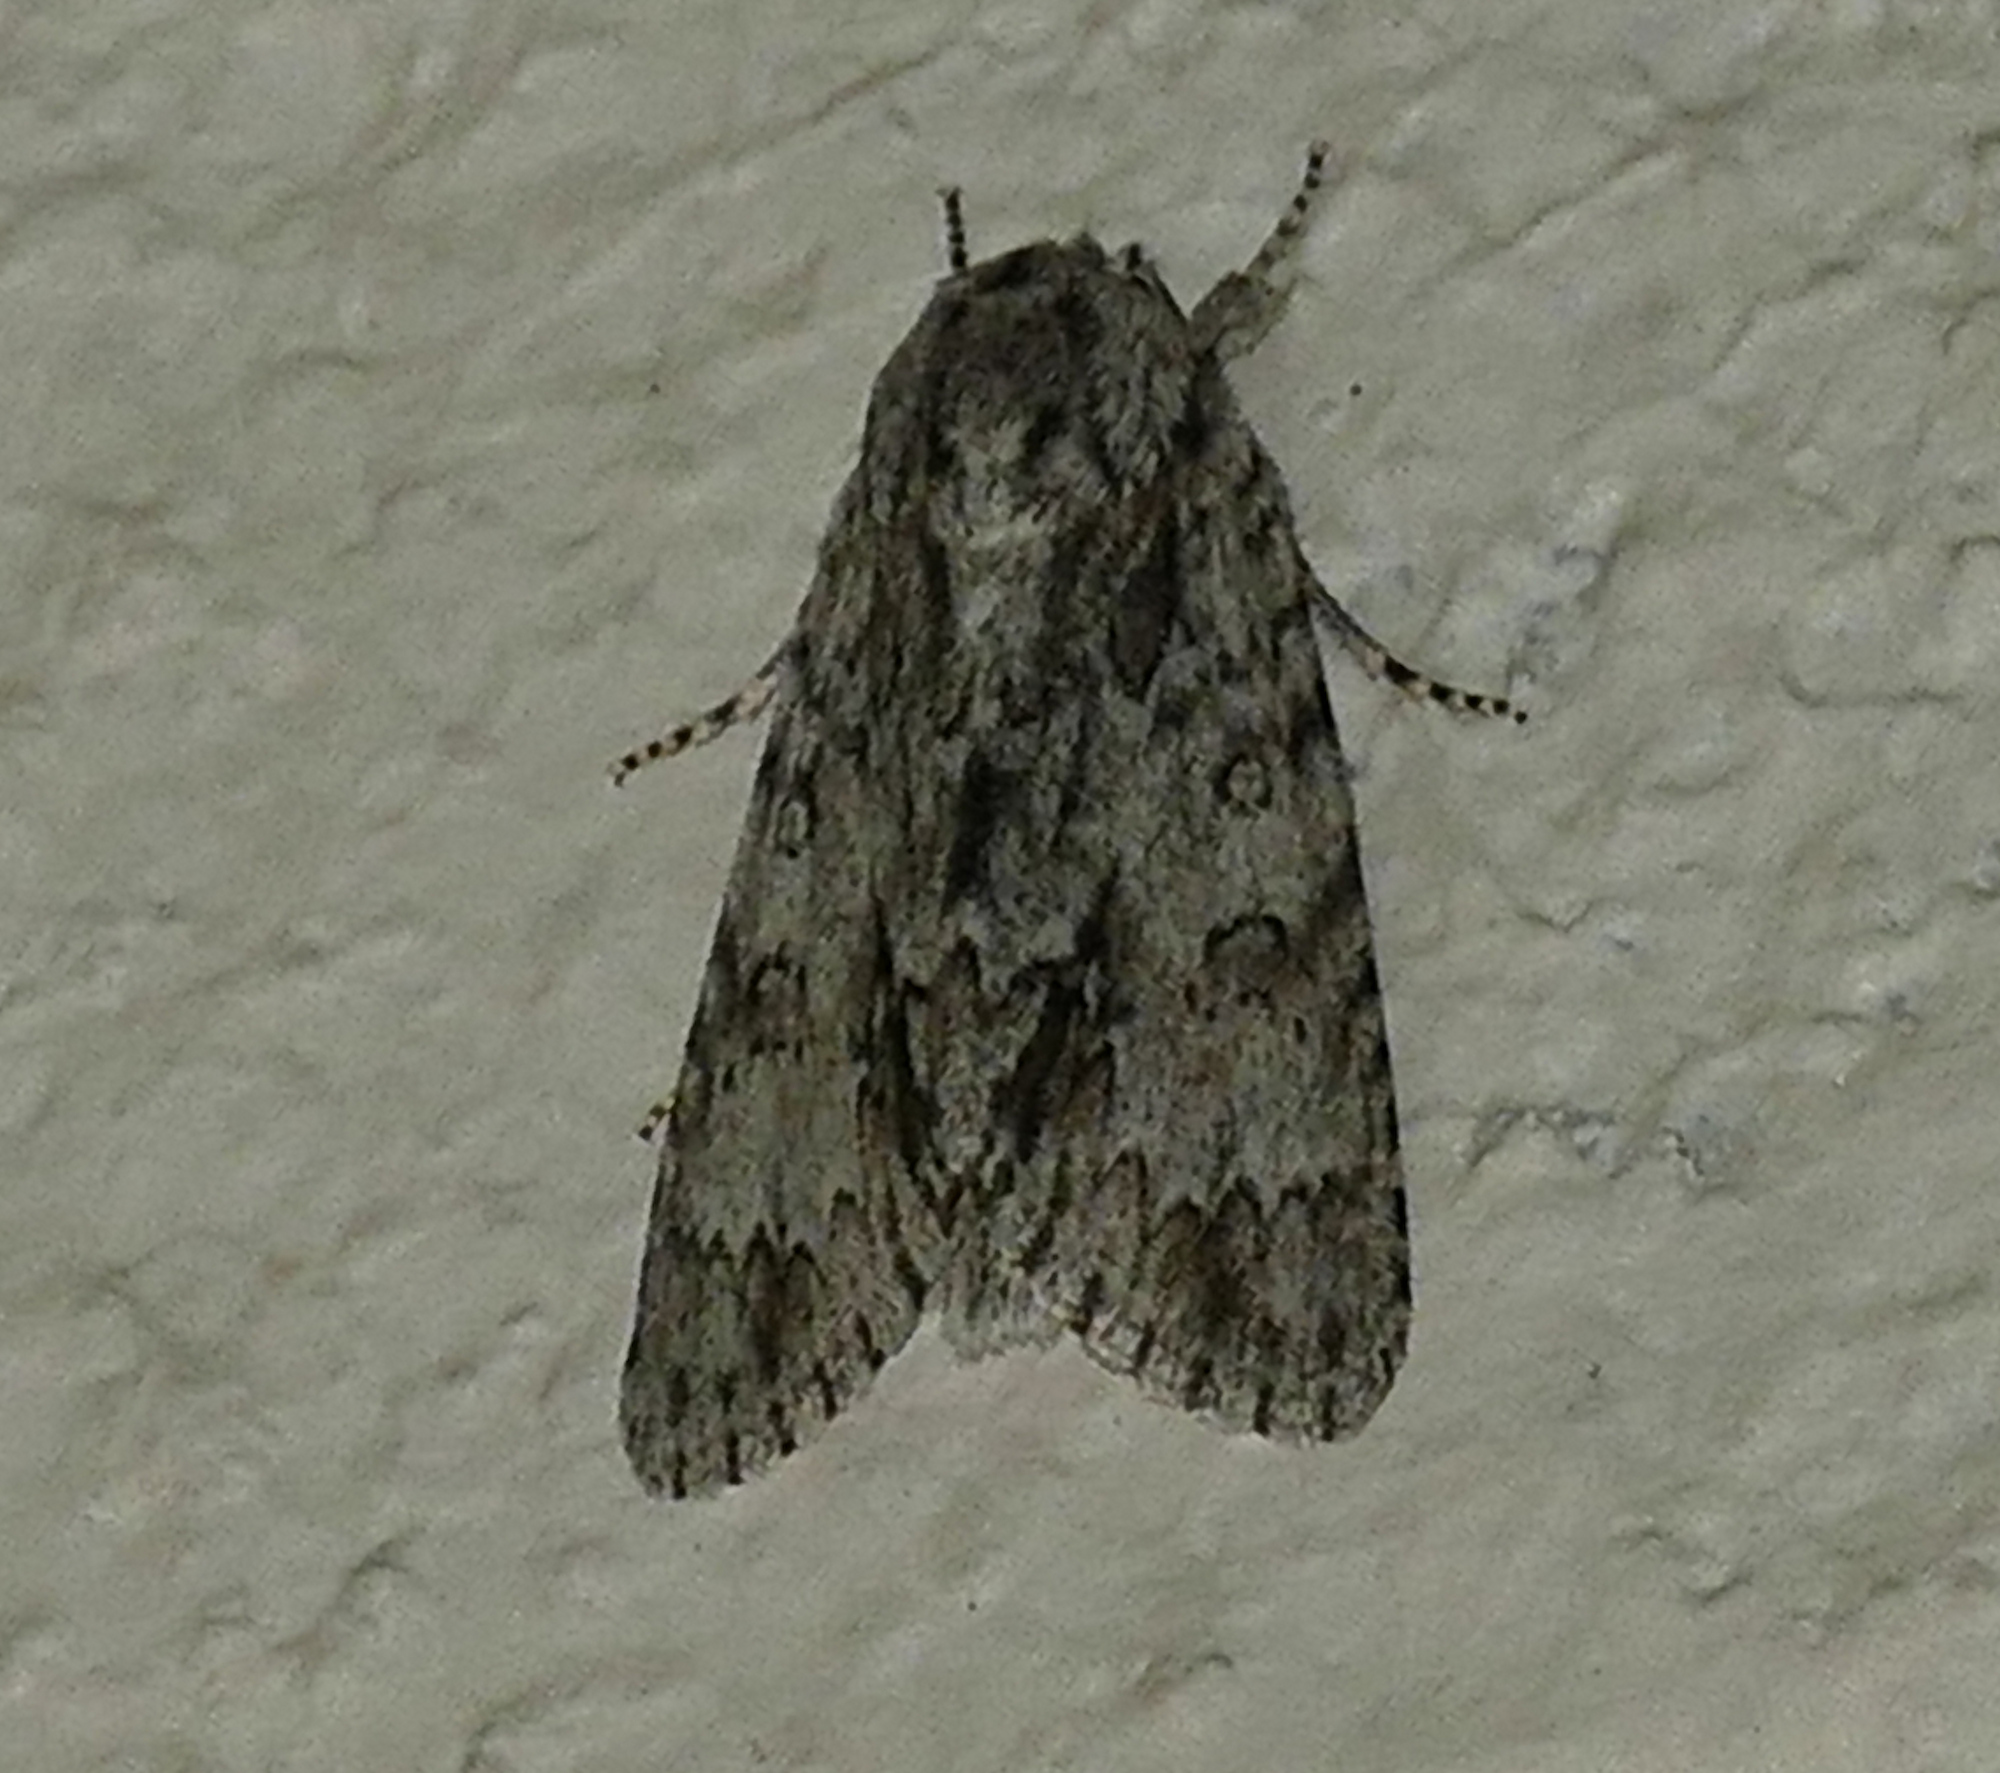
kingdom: Animalia
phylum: Arthropoda
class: Insecta
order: Lepidoptera
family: Noctuidae
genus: Acronicta
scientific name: Acronicta rubricoma
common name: Hackberry dagger
